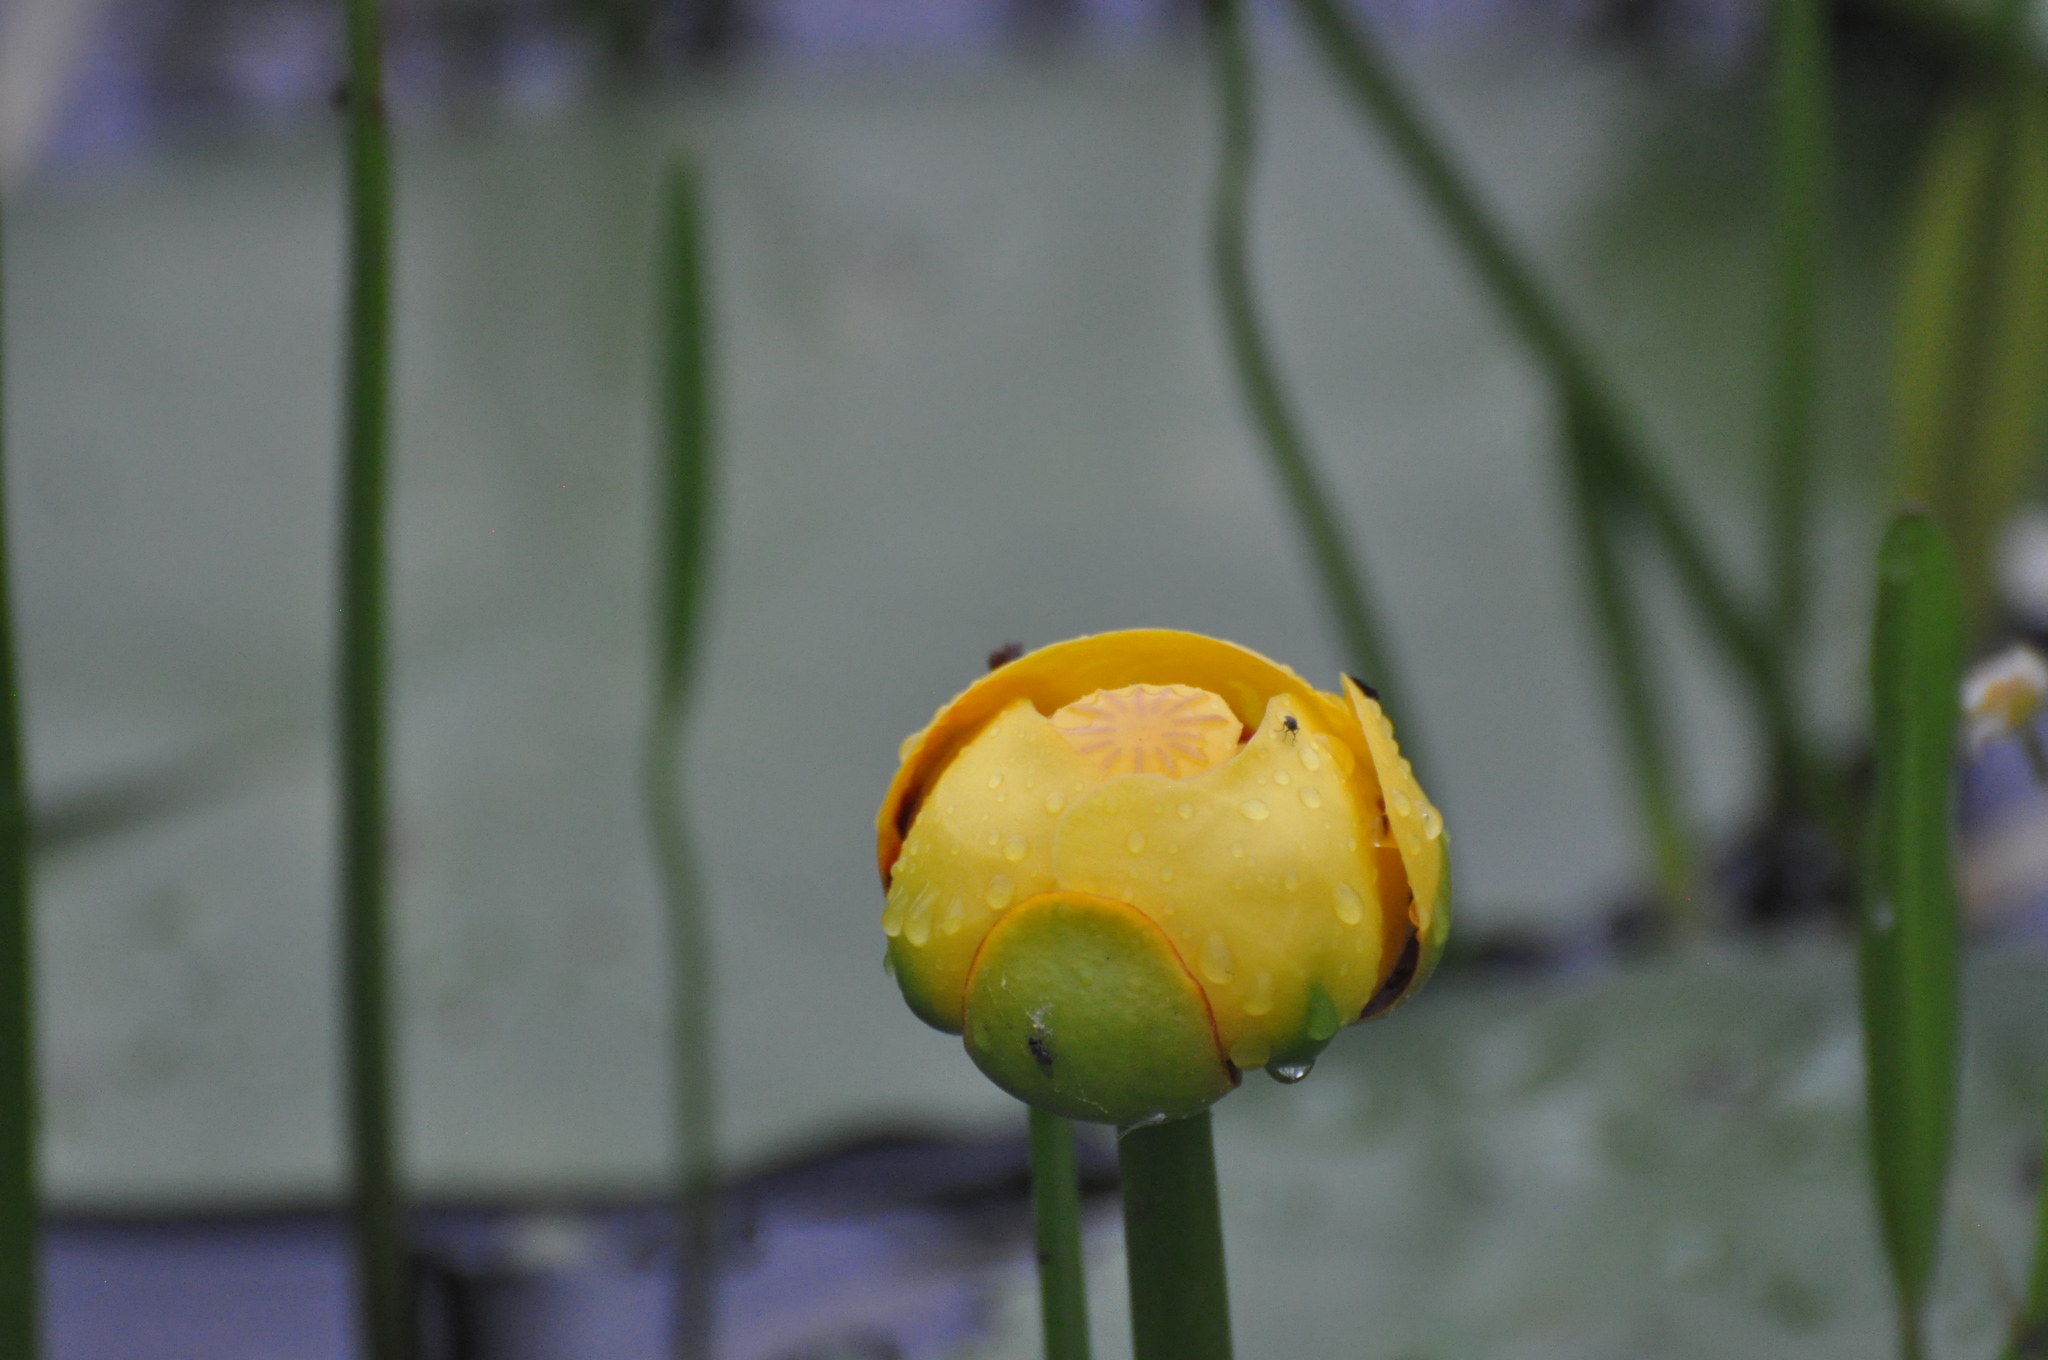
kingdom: Plantae
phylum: Tracheophyta
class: Magnoliopsida
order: Nymphaeales
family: Nymphaeaceae
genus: Nuphar
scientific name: Nuphar variegata
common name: Beaver-root
